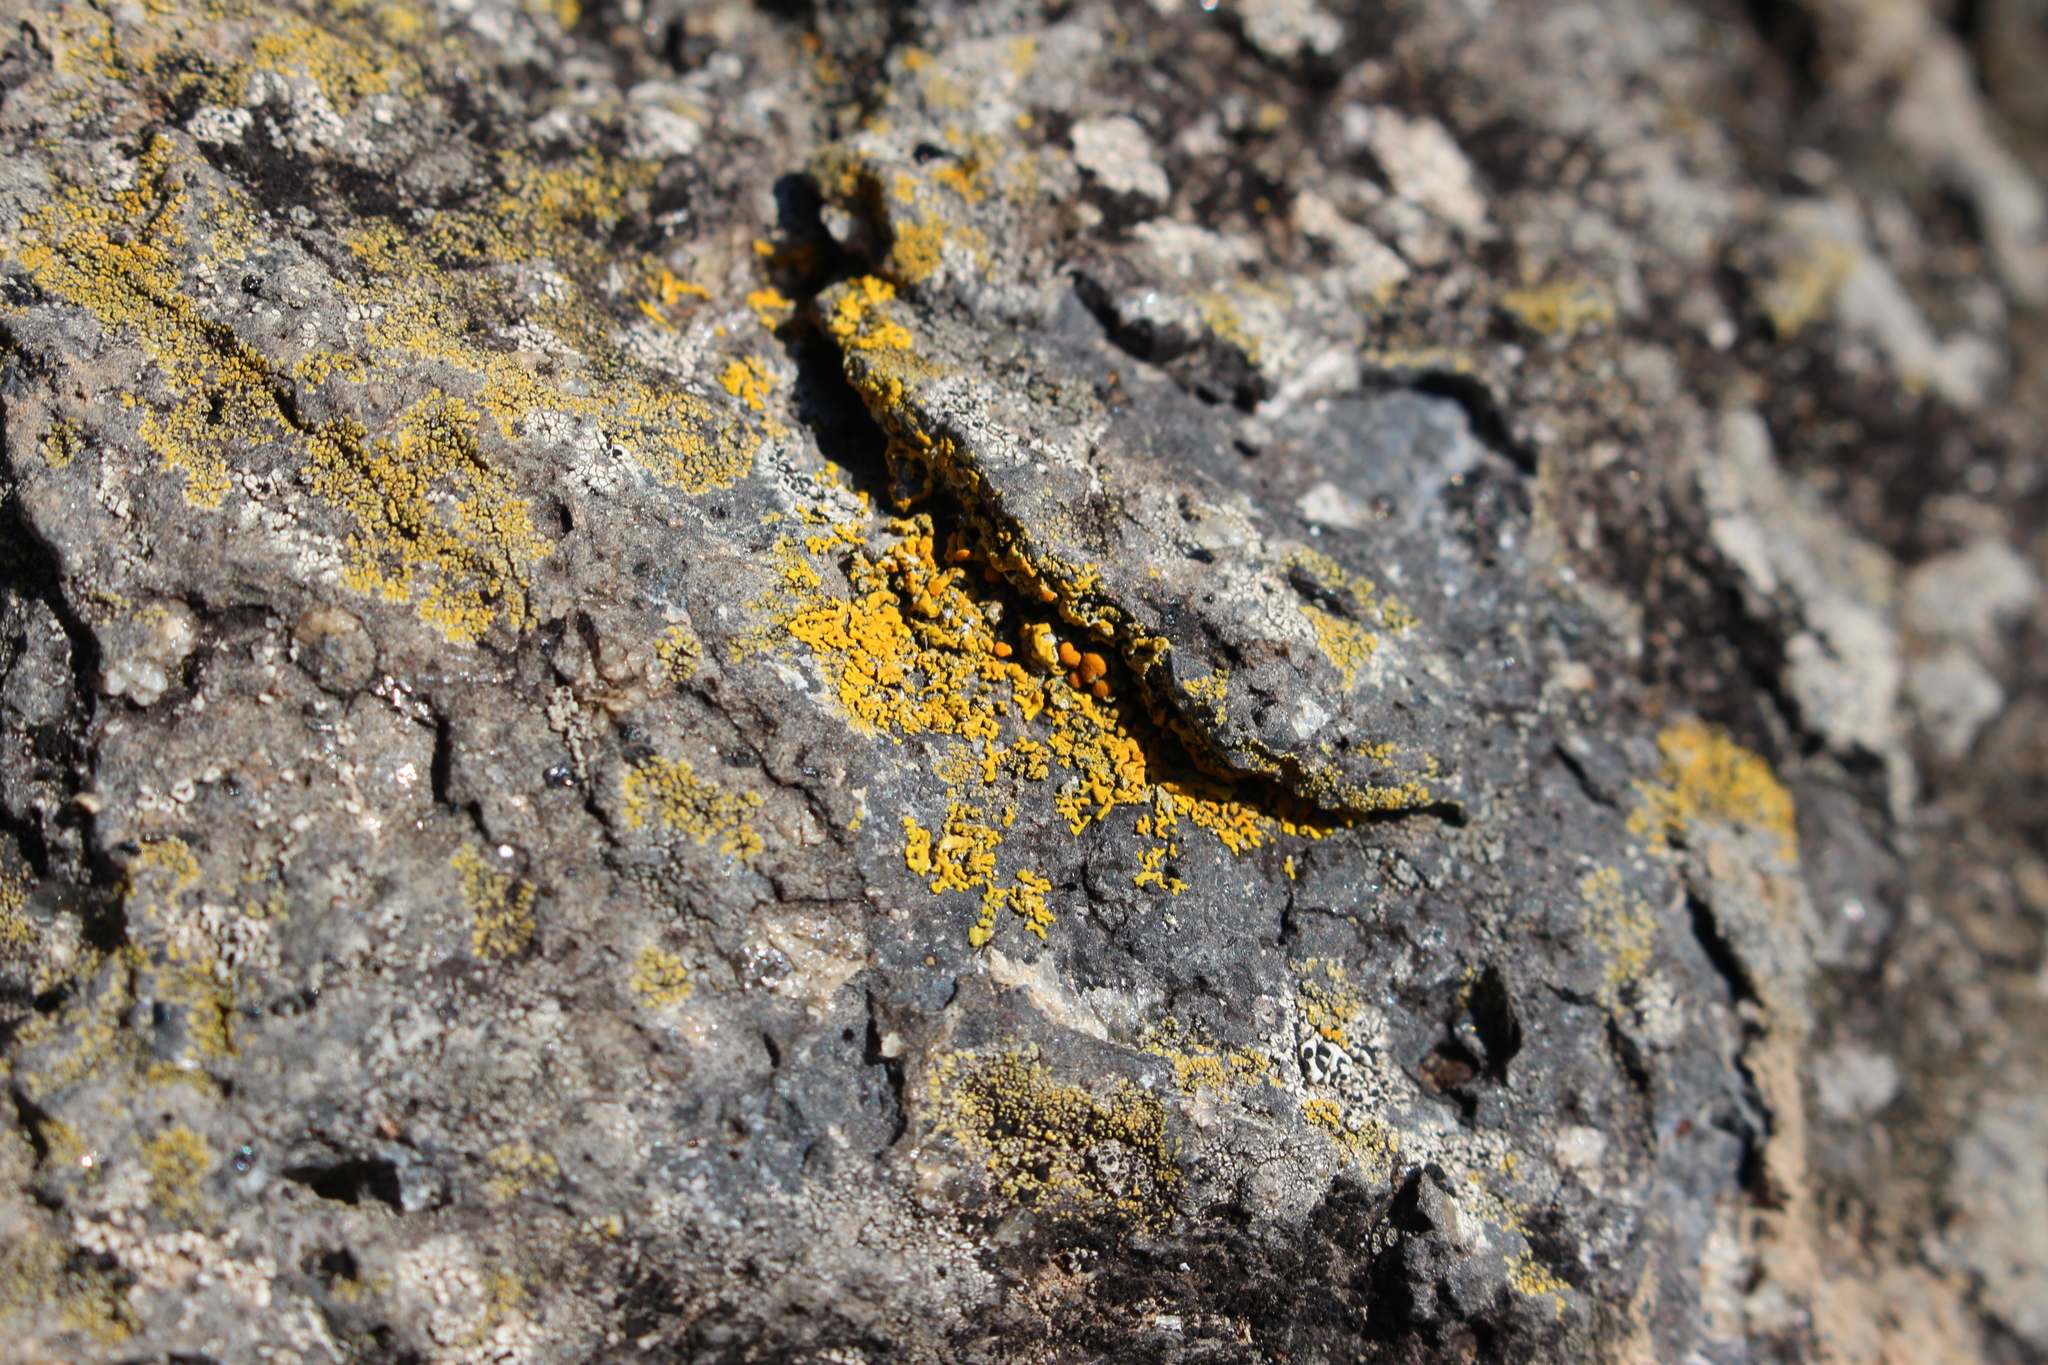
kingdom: Fungi
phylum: Ascomycota
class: Lecanoromycetes
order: Teloschistales
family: Teloschistaceae
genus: Dufourea
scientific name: Dufourea ligulata
